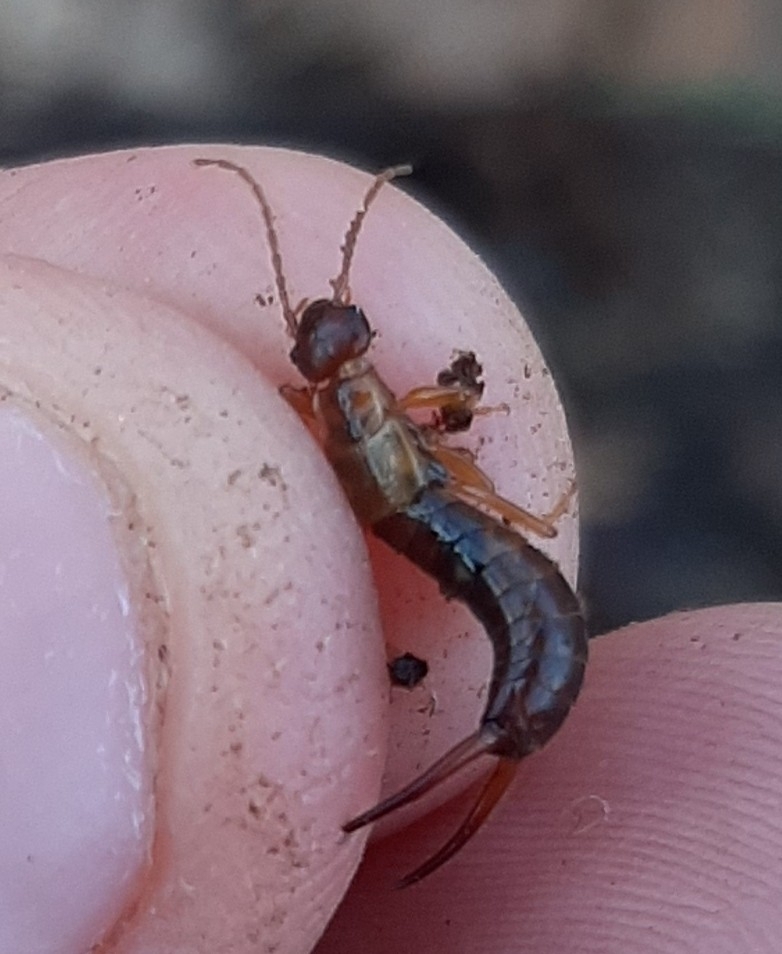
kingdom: Animalia
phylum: Arthropoda
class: Insecta
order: Dermaptera
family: Forficulidae
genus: Apterygida
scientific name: Apterygida albipennis
